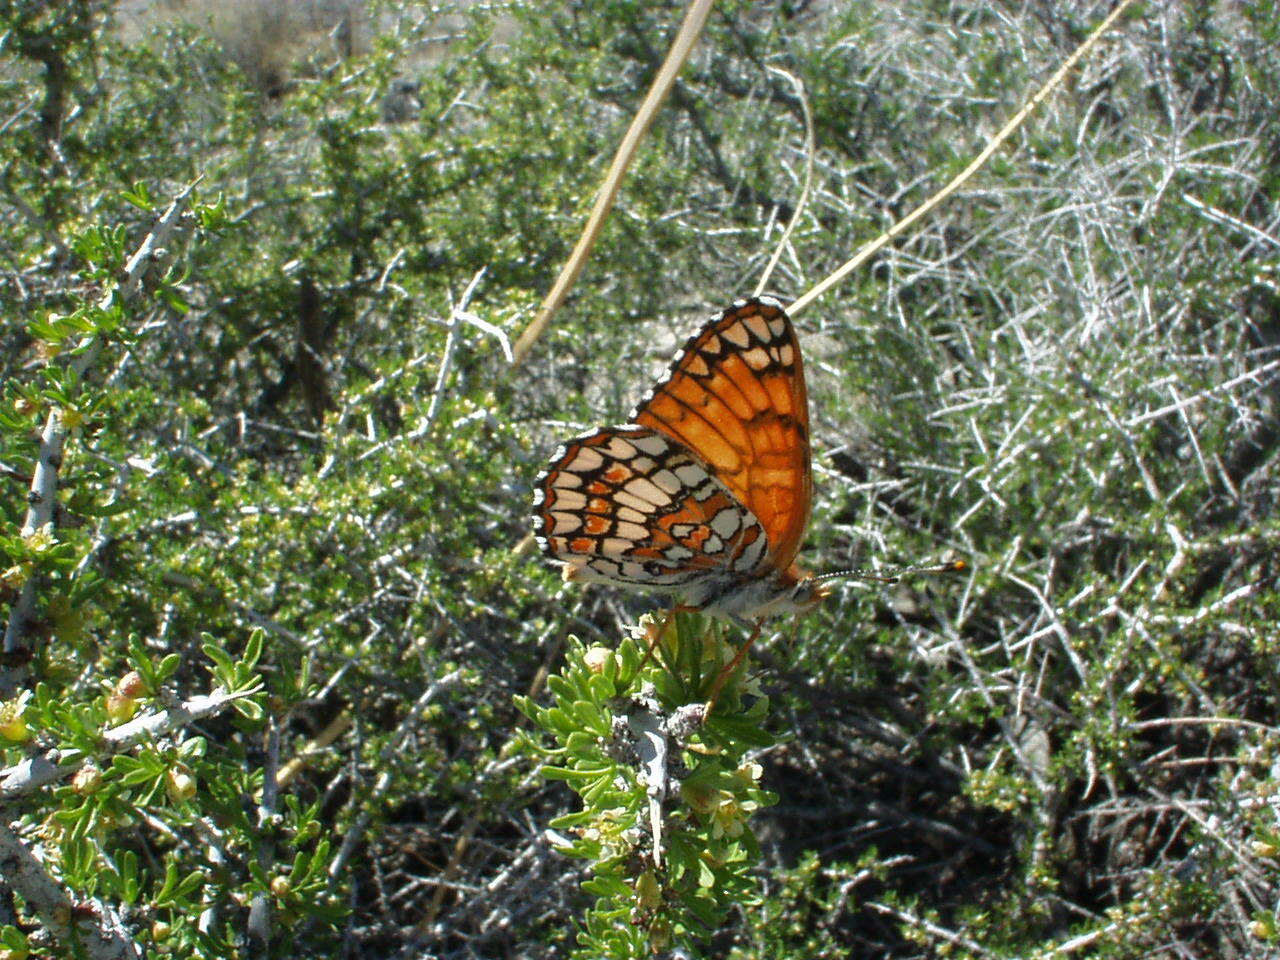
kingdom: Plantae
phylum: Tracheophyta
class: Magnoliopsida
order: Rosales
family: Rosaceae
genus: Prunus
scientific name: Prunus fasciculata
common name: Desert almond
